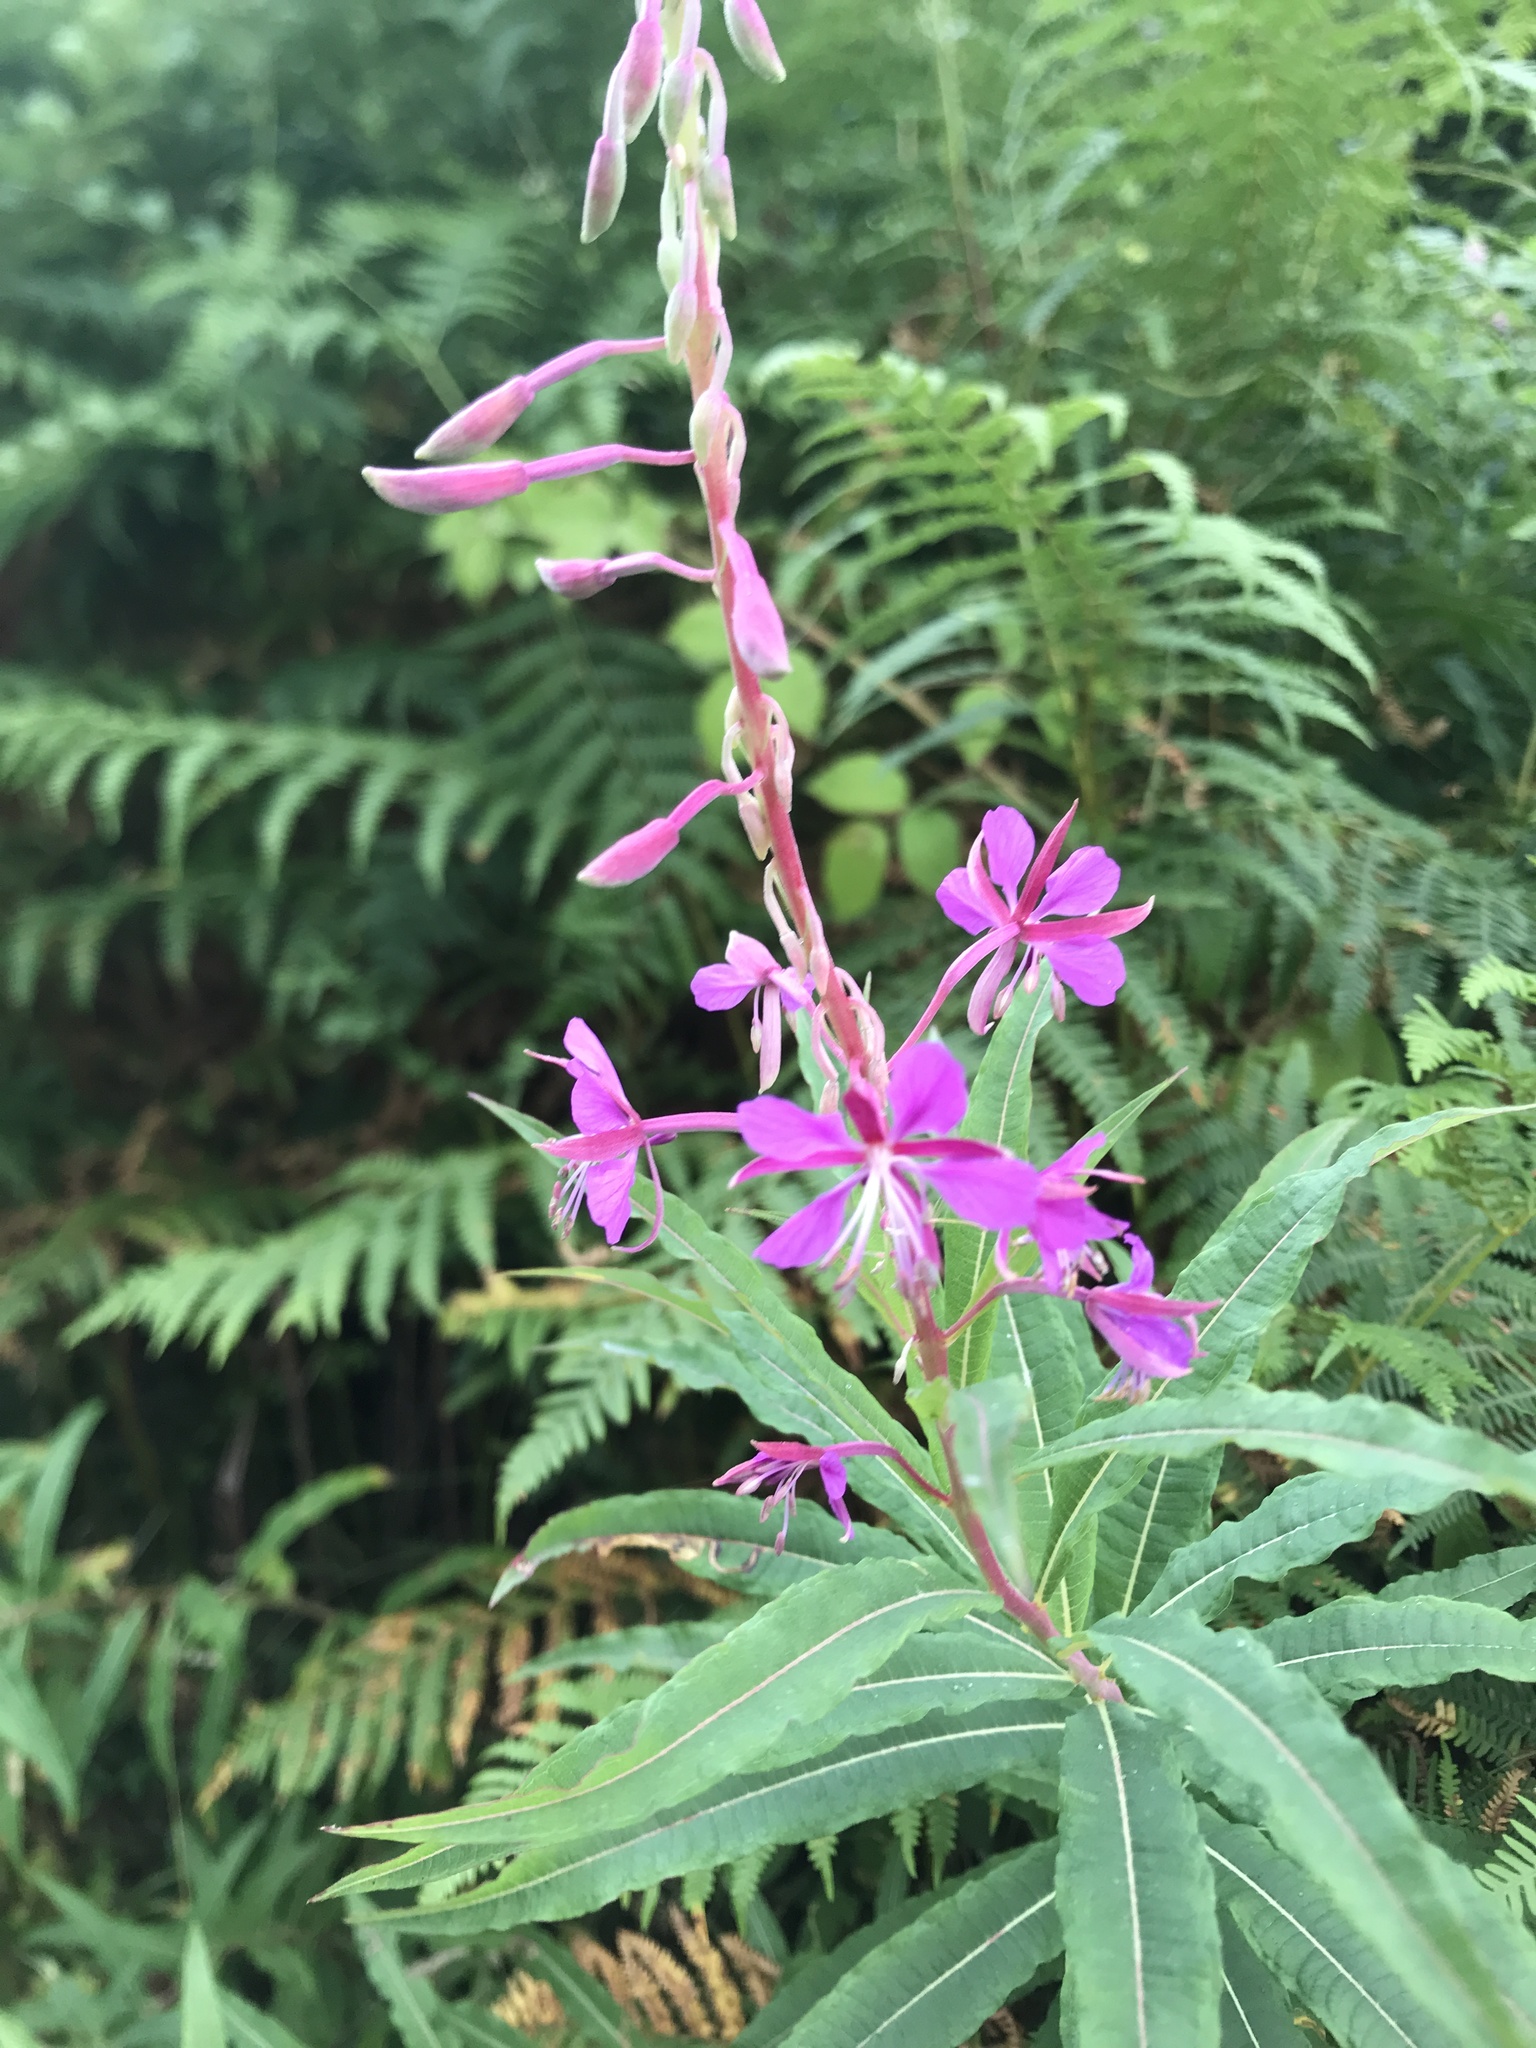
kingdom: Plantae
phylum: Tracheophyta
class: Magnoliopsida
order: Myrtales
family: Onagraceae
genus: Chamaenerion
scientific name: Chamaenerion angustifolium
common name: Fireweed
